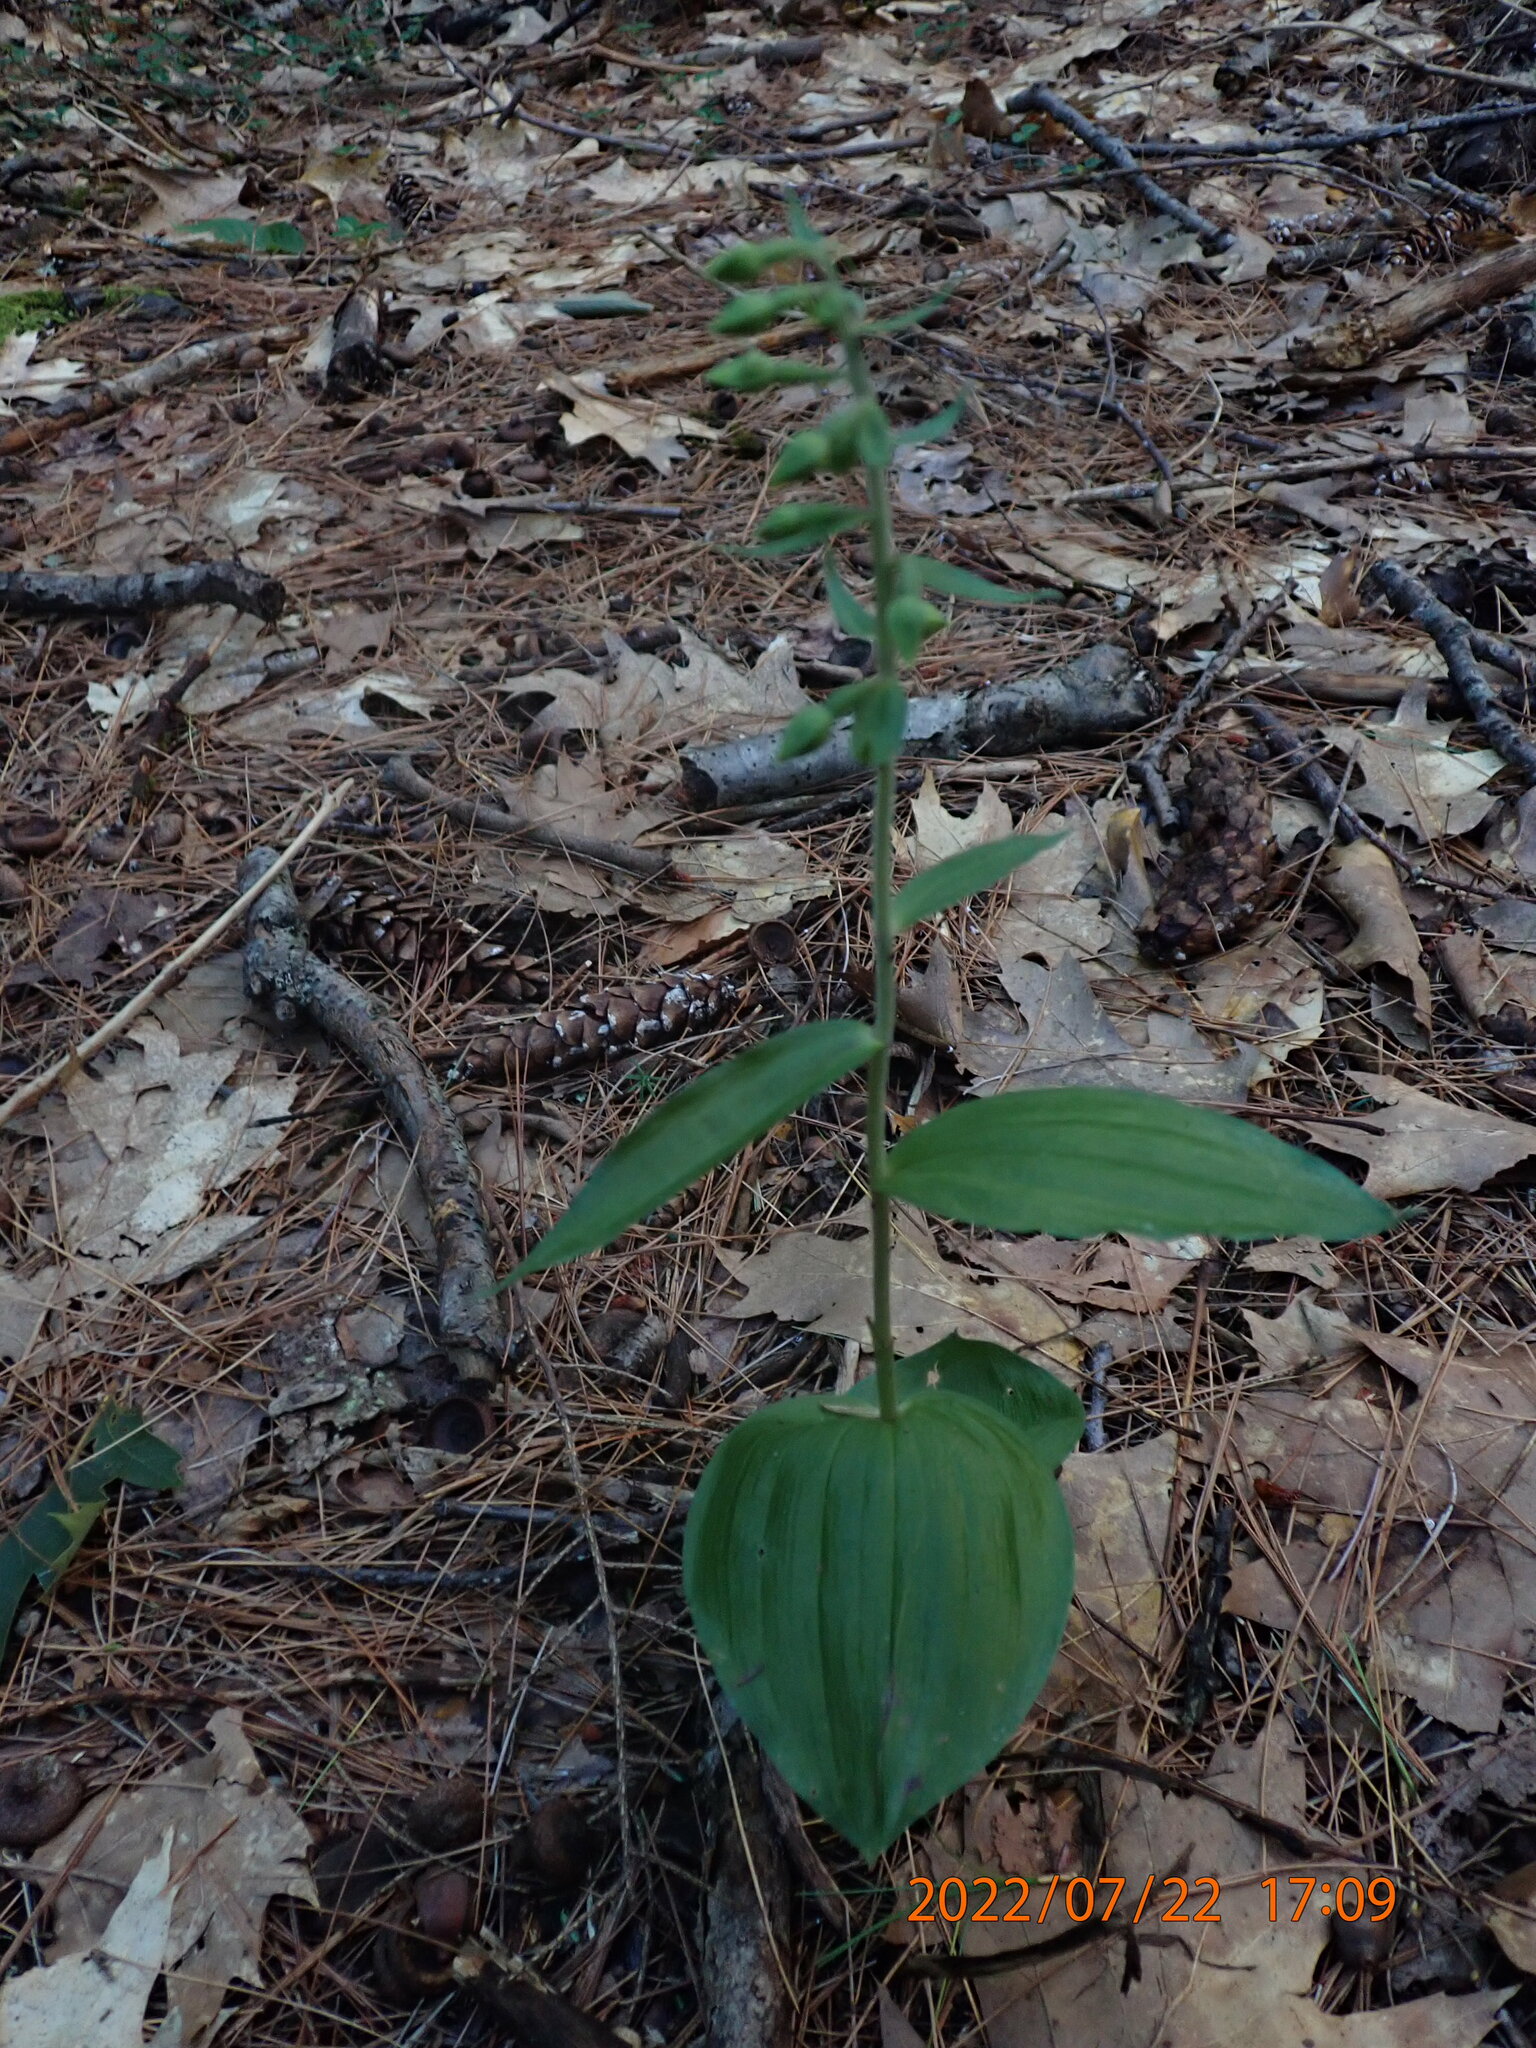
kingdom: Plantae
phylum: Tracheophyta
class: Liliopsida
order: Asparagales
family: Orchidaceae
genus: Epipactis
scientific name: Epipactis helleborine
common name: Broad-leaved helleborine
